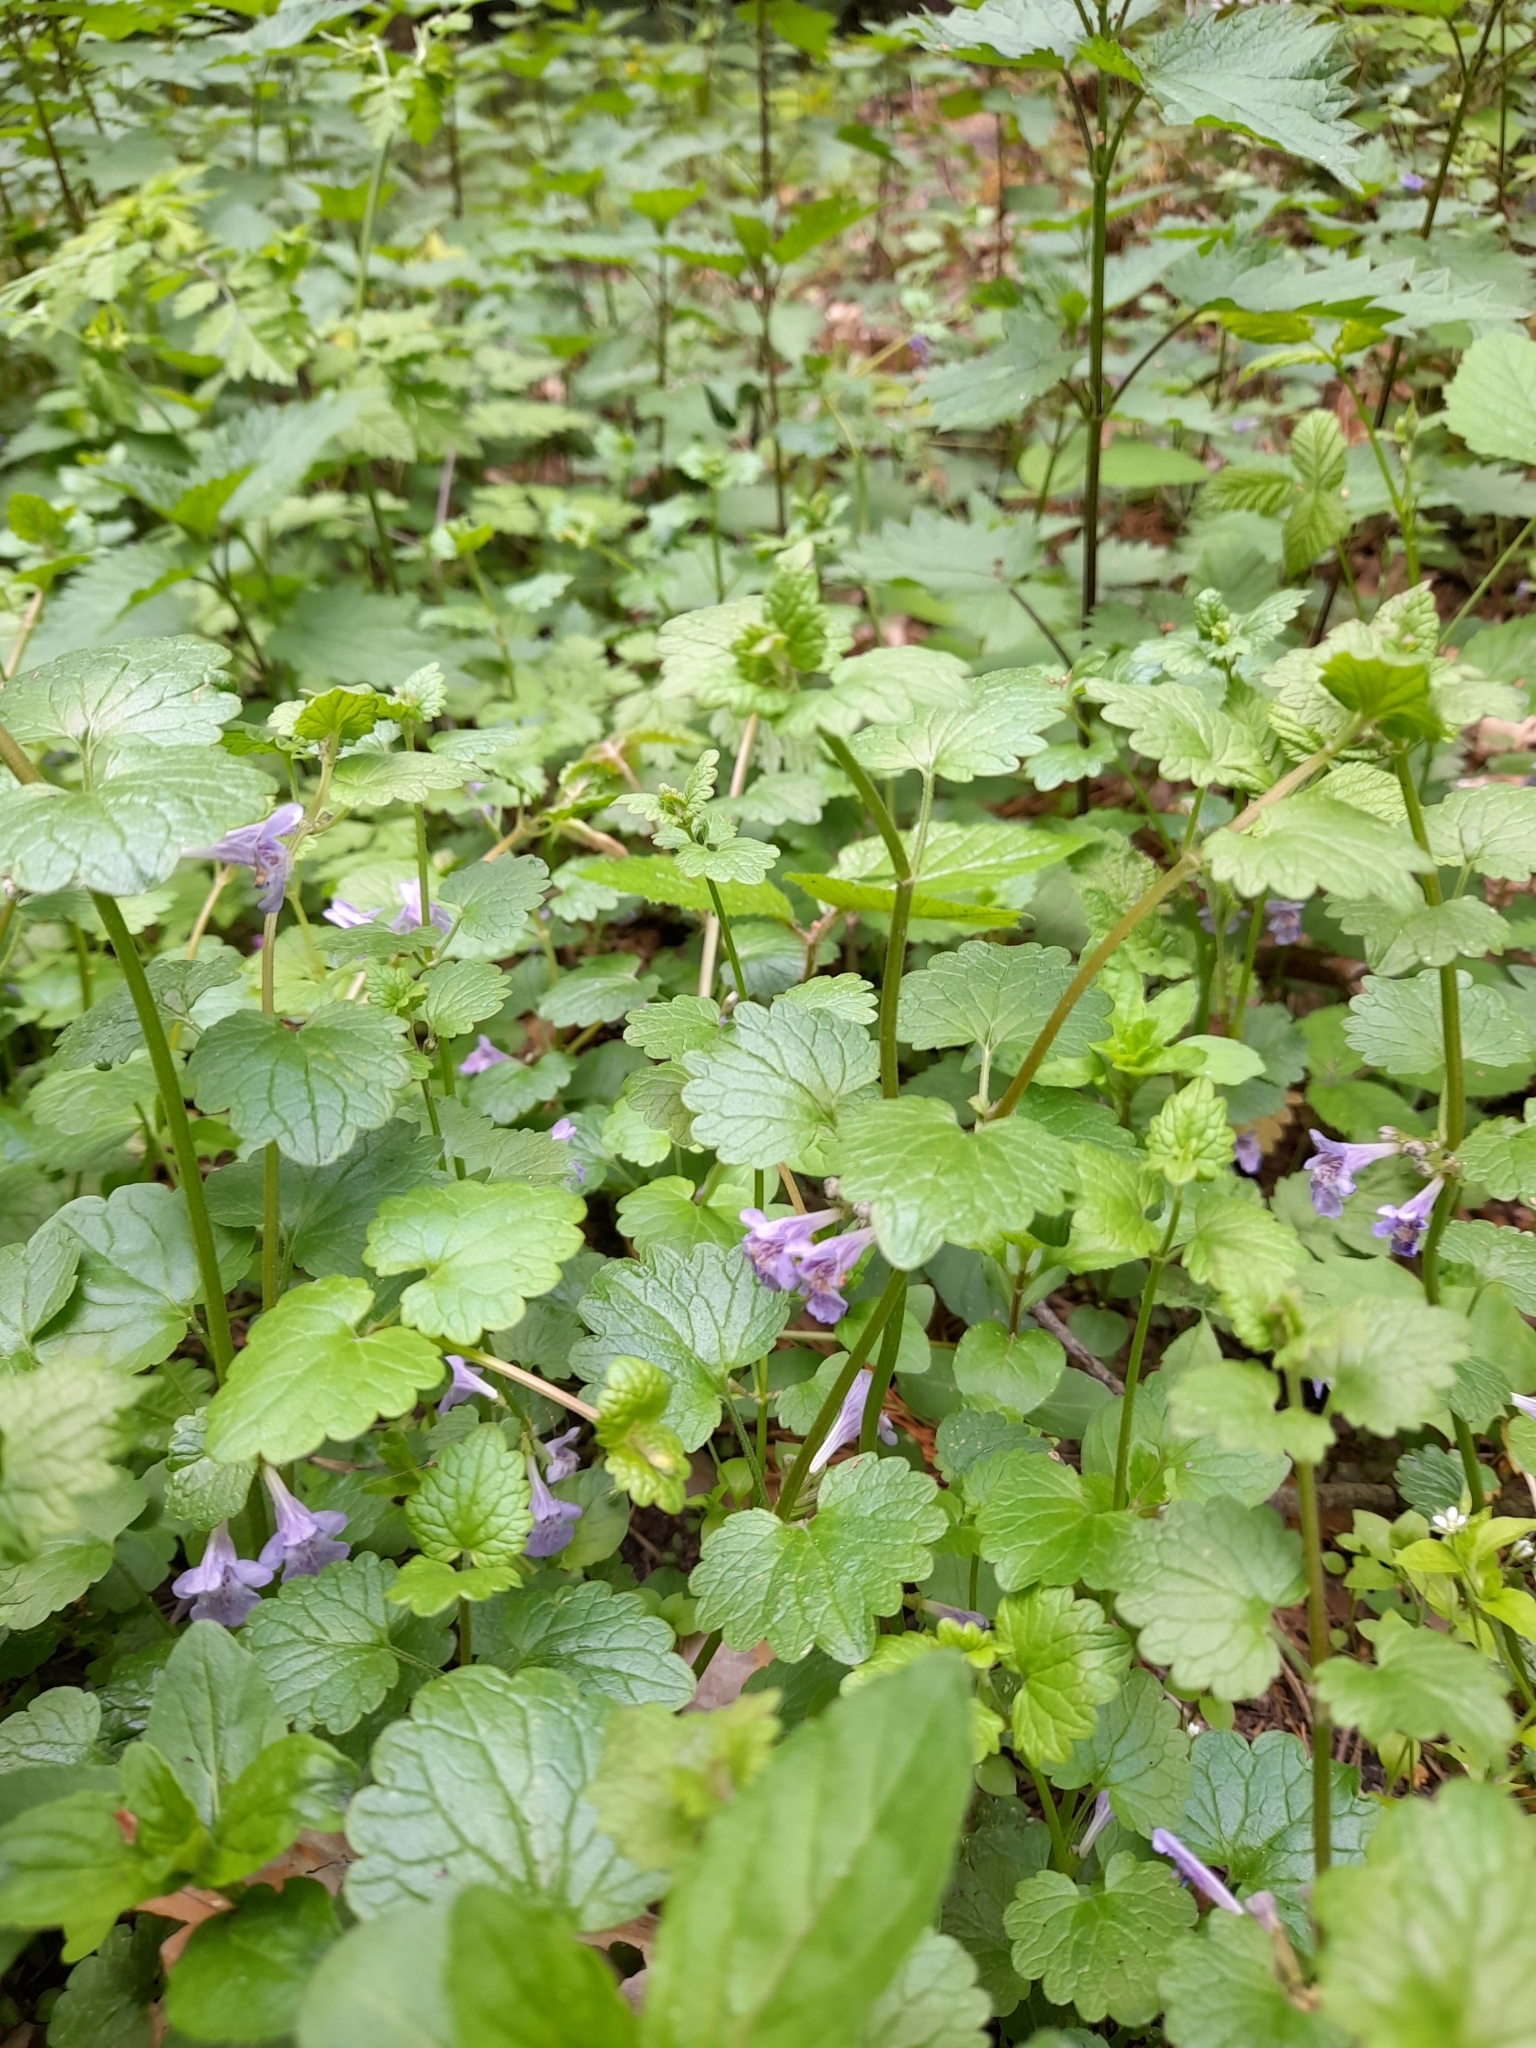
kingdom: Plantae
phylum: Tracheophyta
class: Magnoliopsida
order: Lamiales
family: Lamiaceae
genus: Glechoma
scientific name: Glechoma hederacea
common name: Ground ivy
